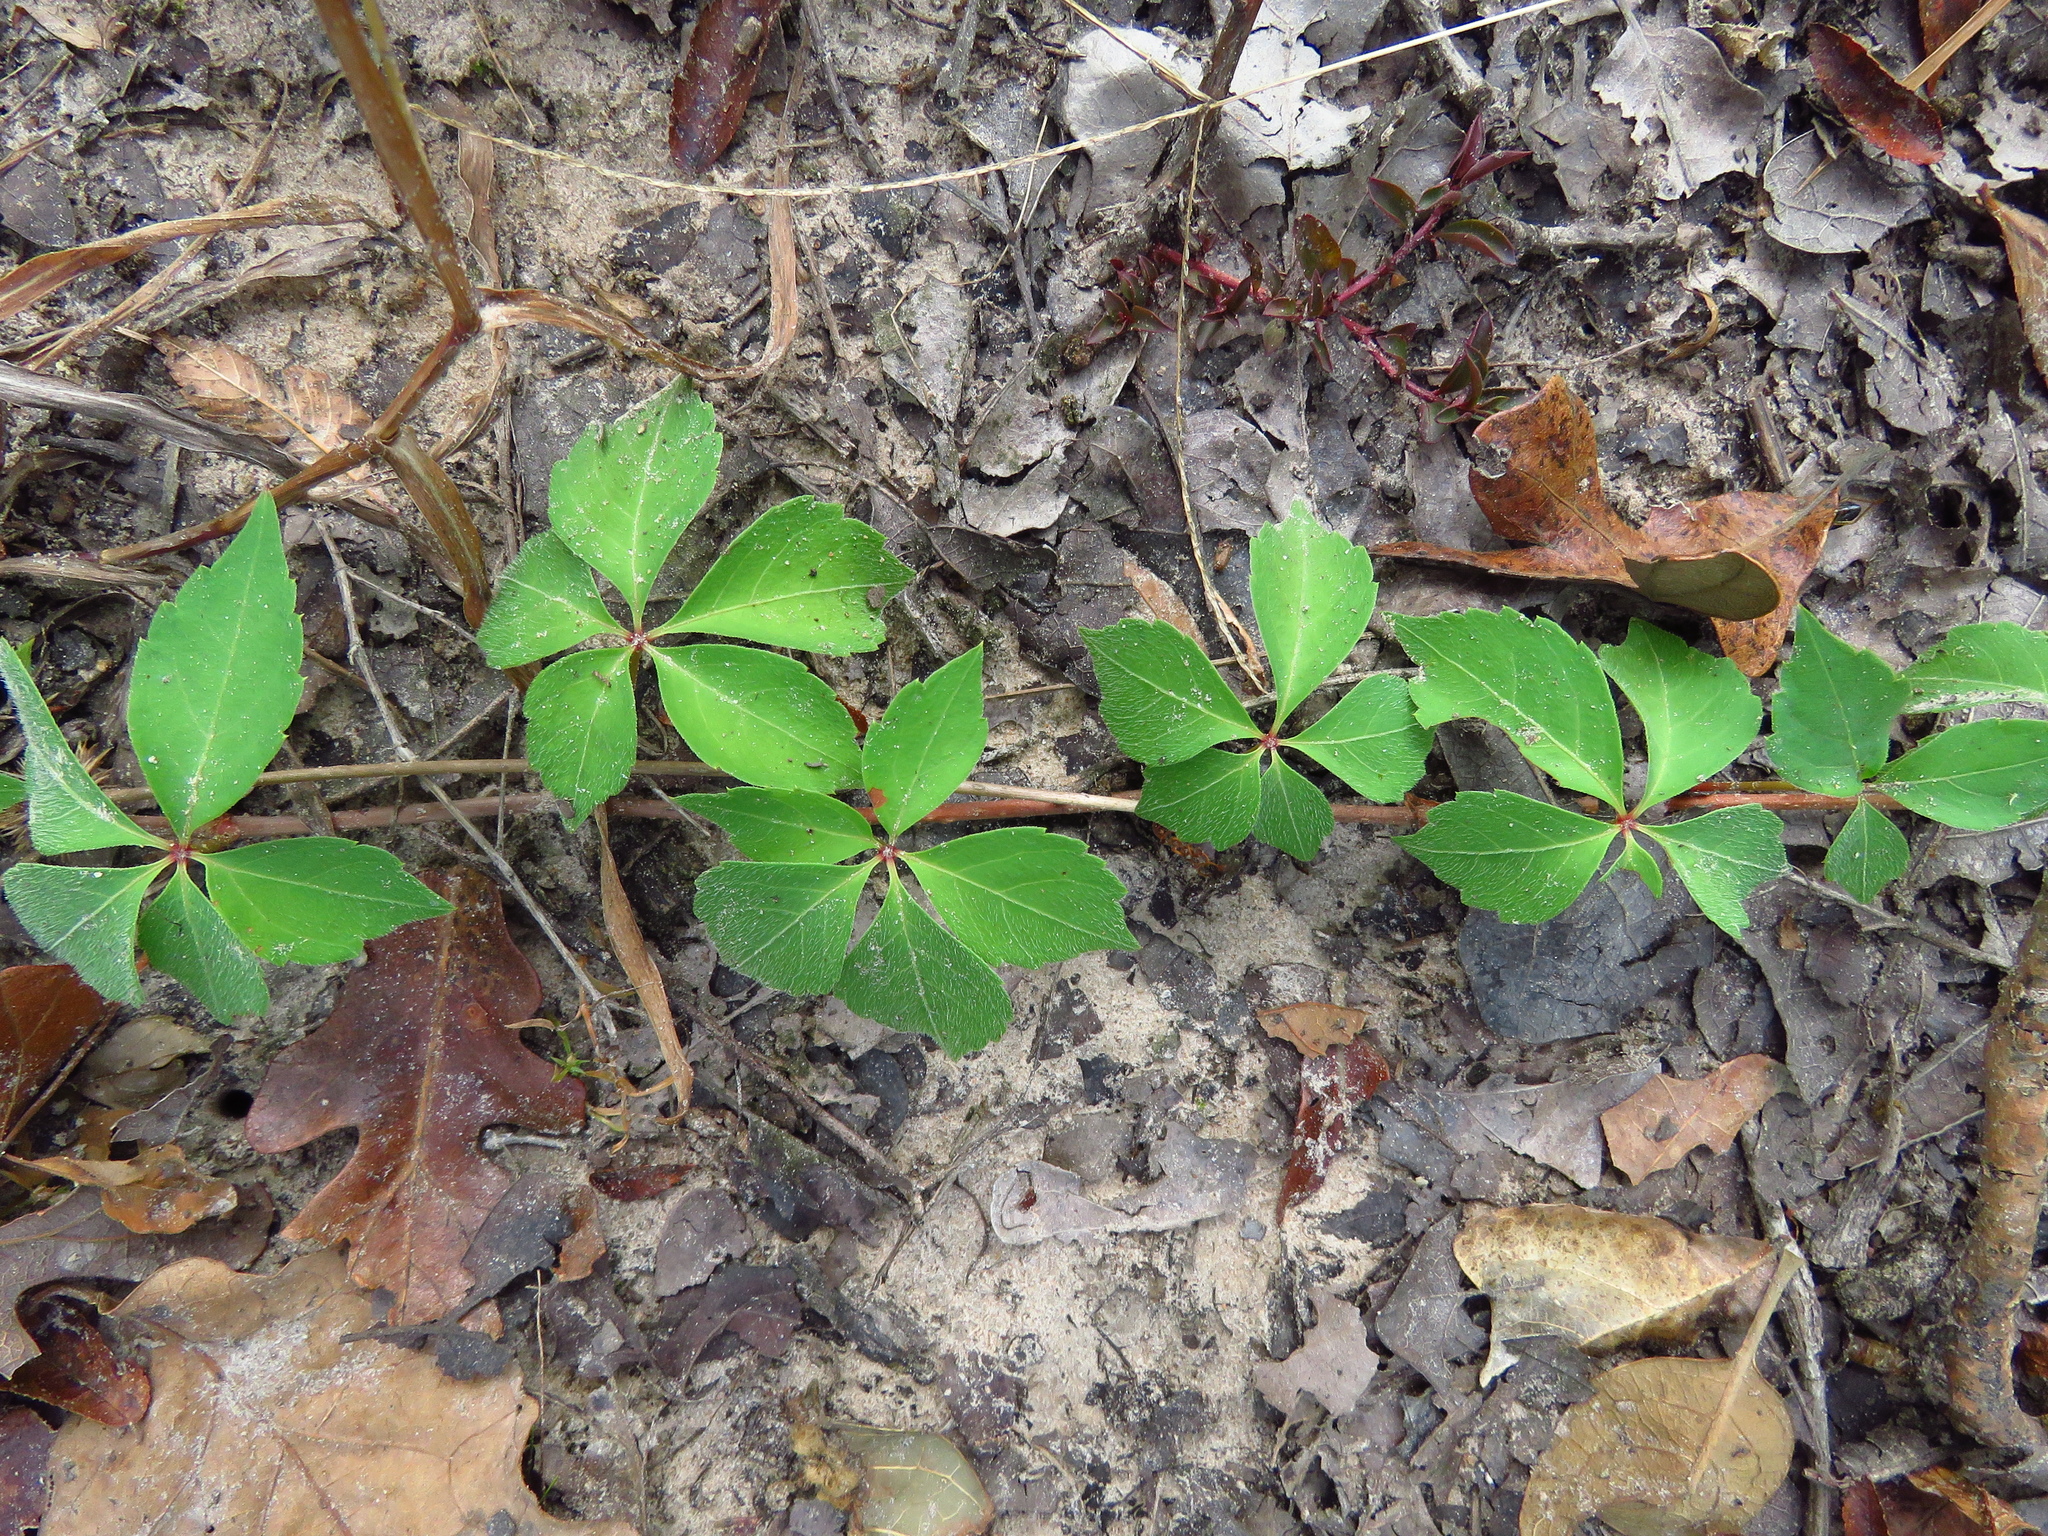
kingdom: Plantae
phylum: Tracheophyta
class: Magnoliopsida
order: Vitales
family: Vitaceae
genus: Parthenocissus
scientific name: Parthenocissus quinquefolia
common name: Virginia-creeper
